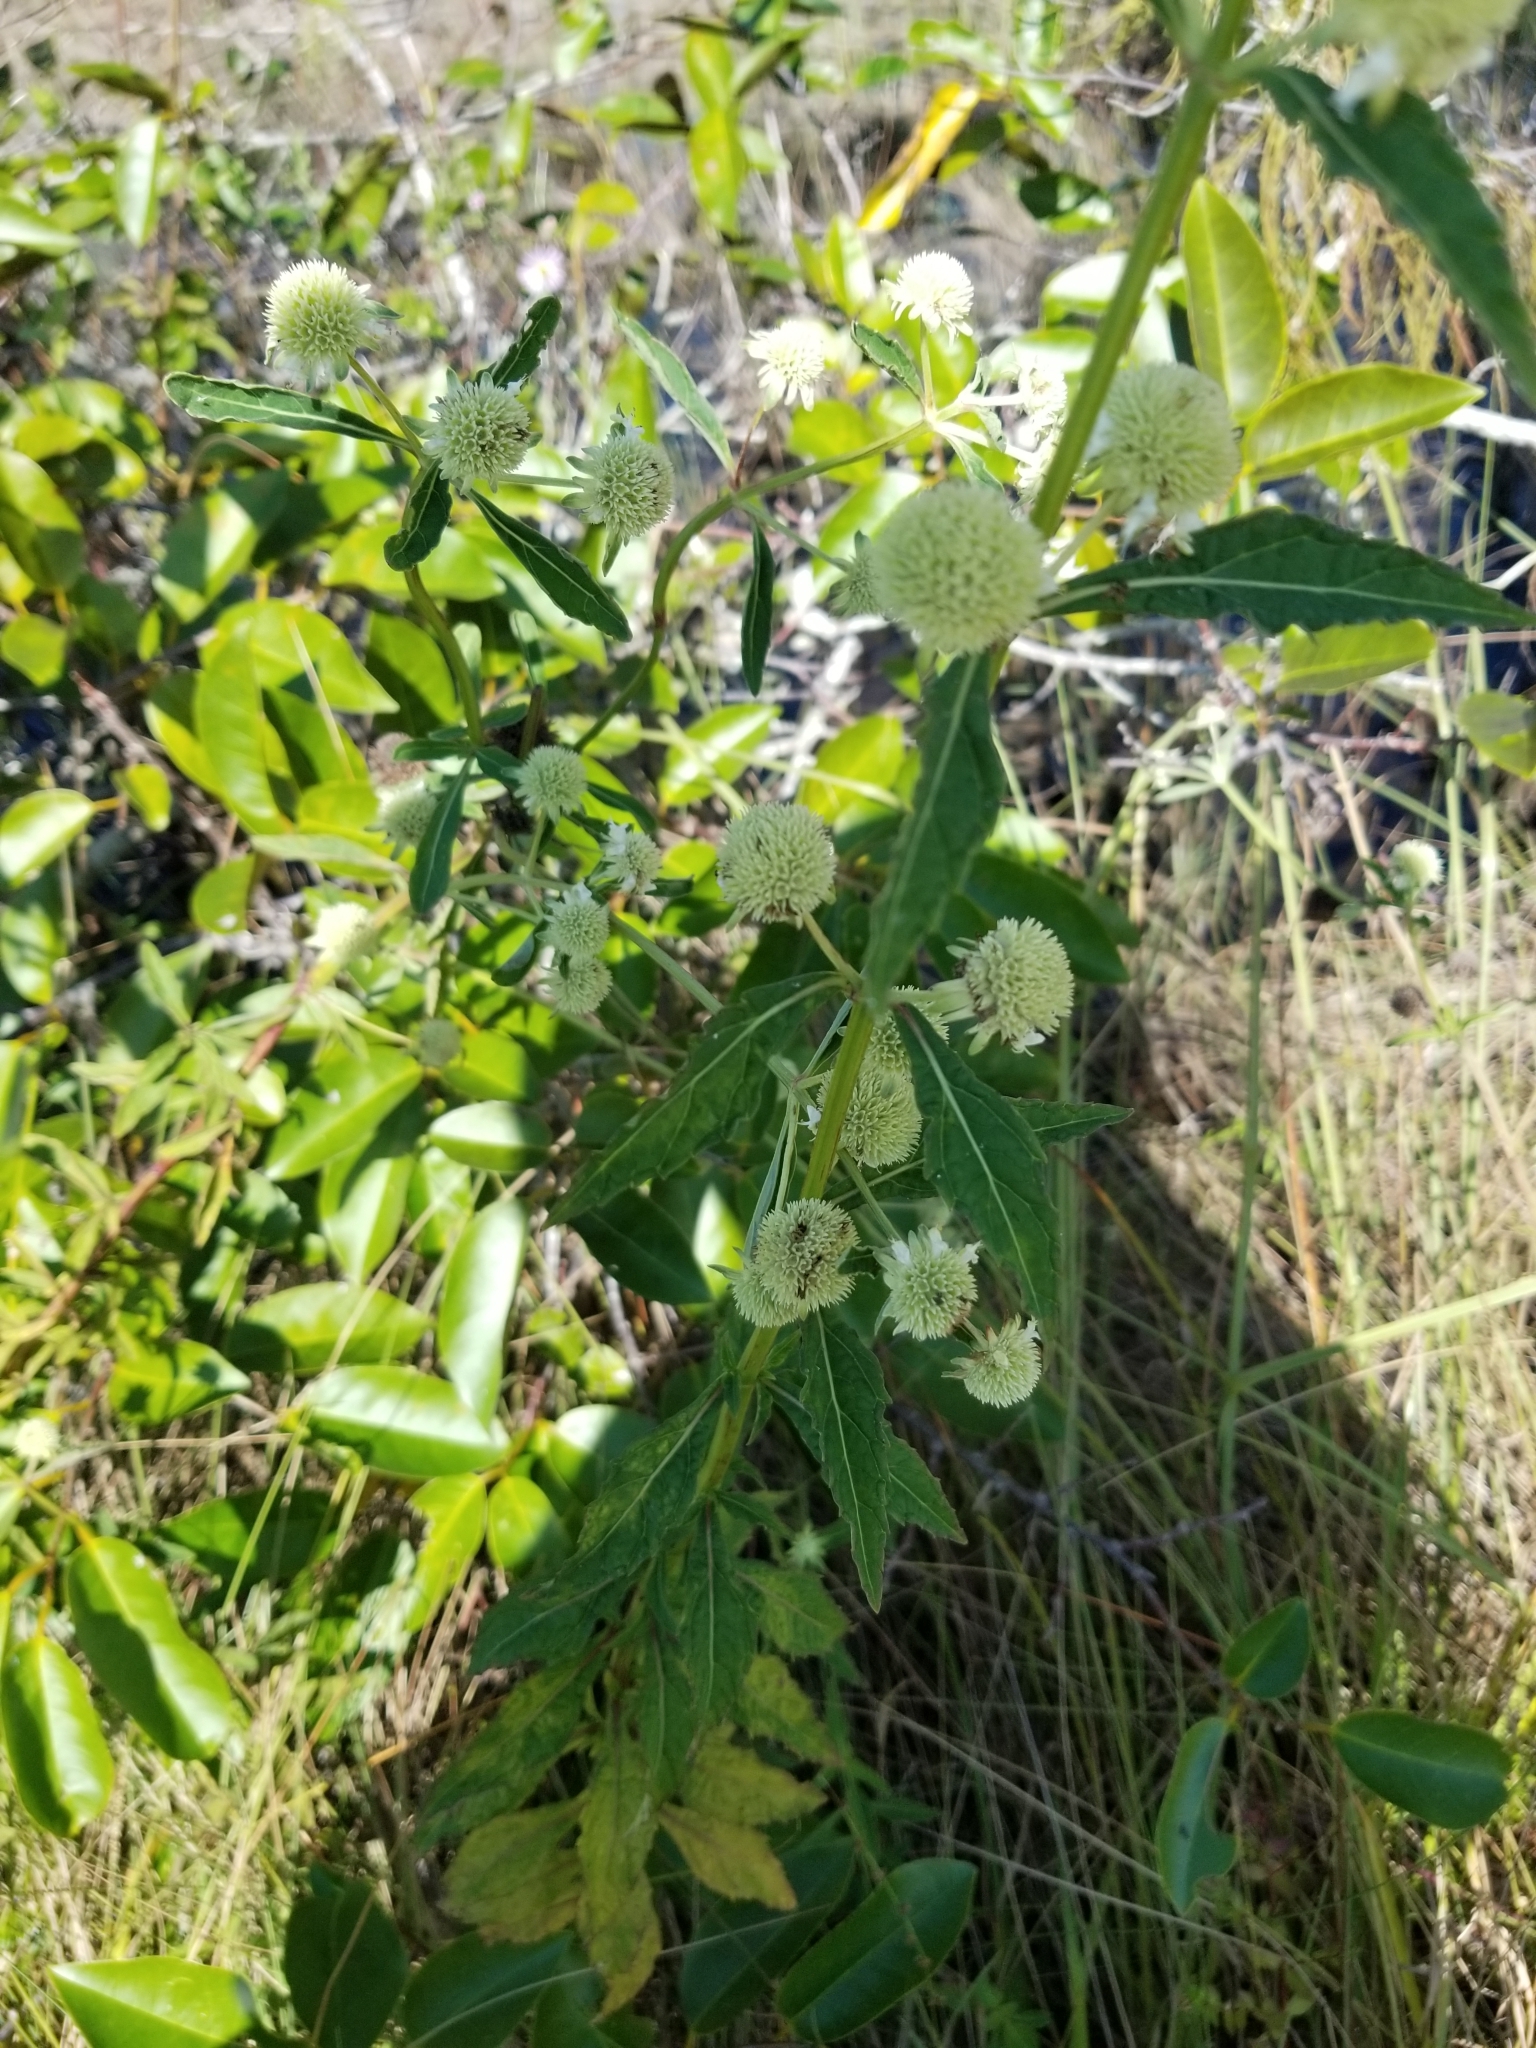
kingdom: Plantae
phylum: Tracheophyta
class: Magnoliopsida
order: Lamiales
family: Lamiaceae
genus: Hyptis
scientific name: Hyptis alata
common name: Cluster bush-mint
